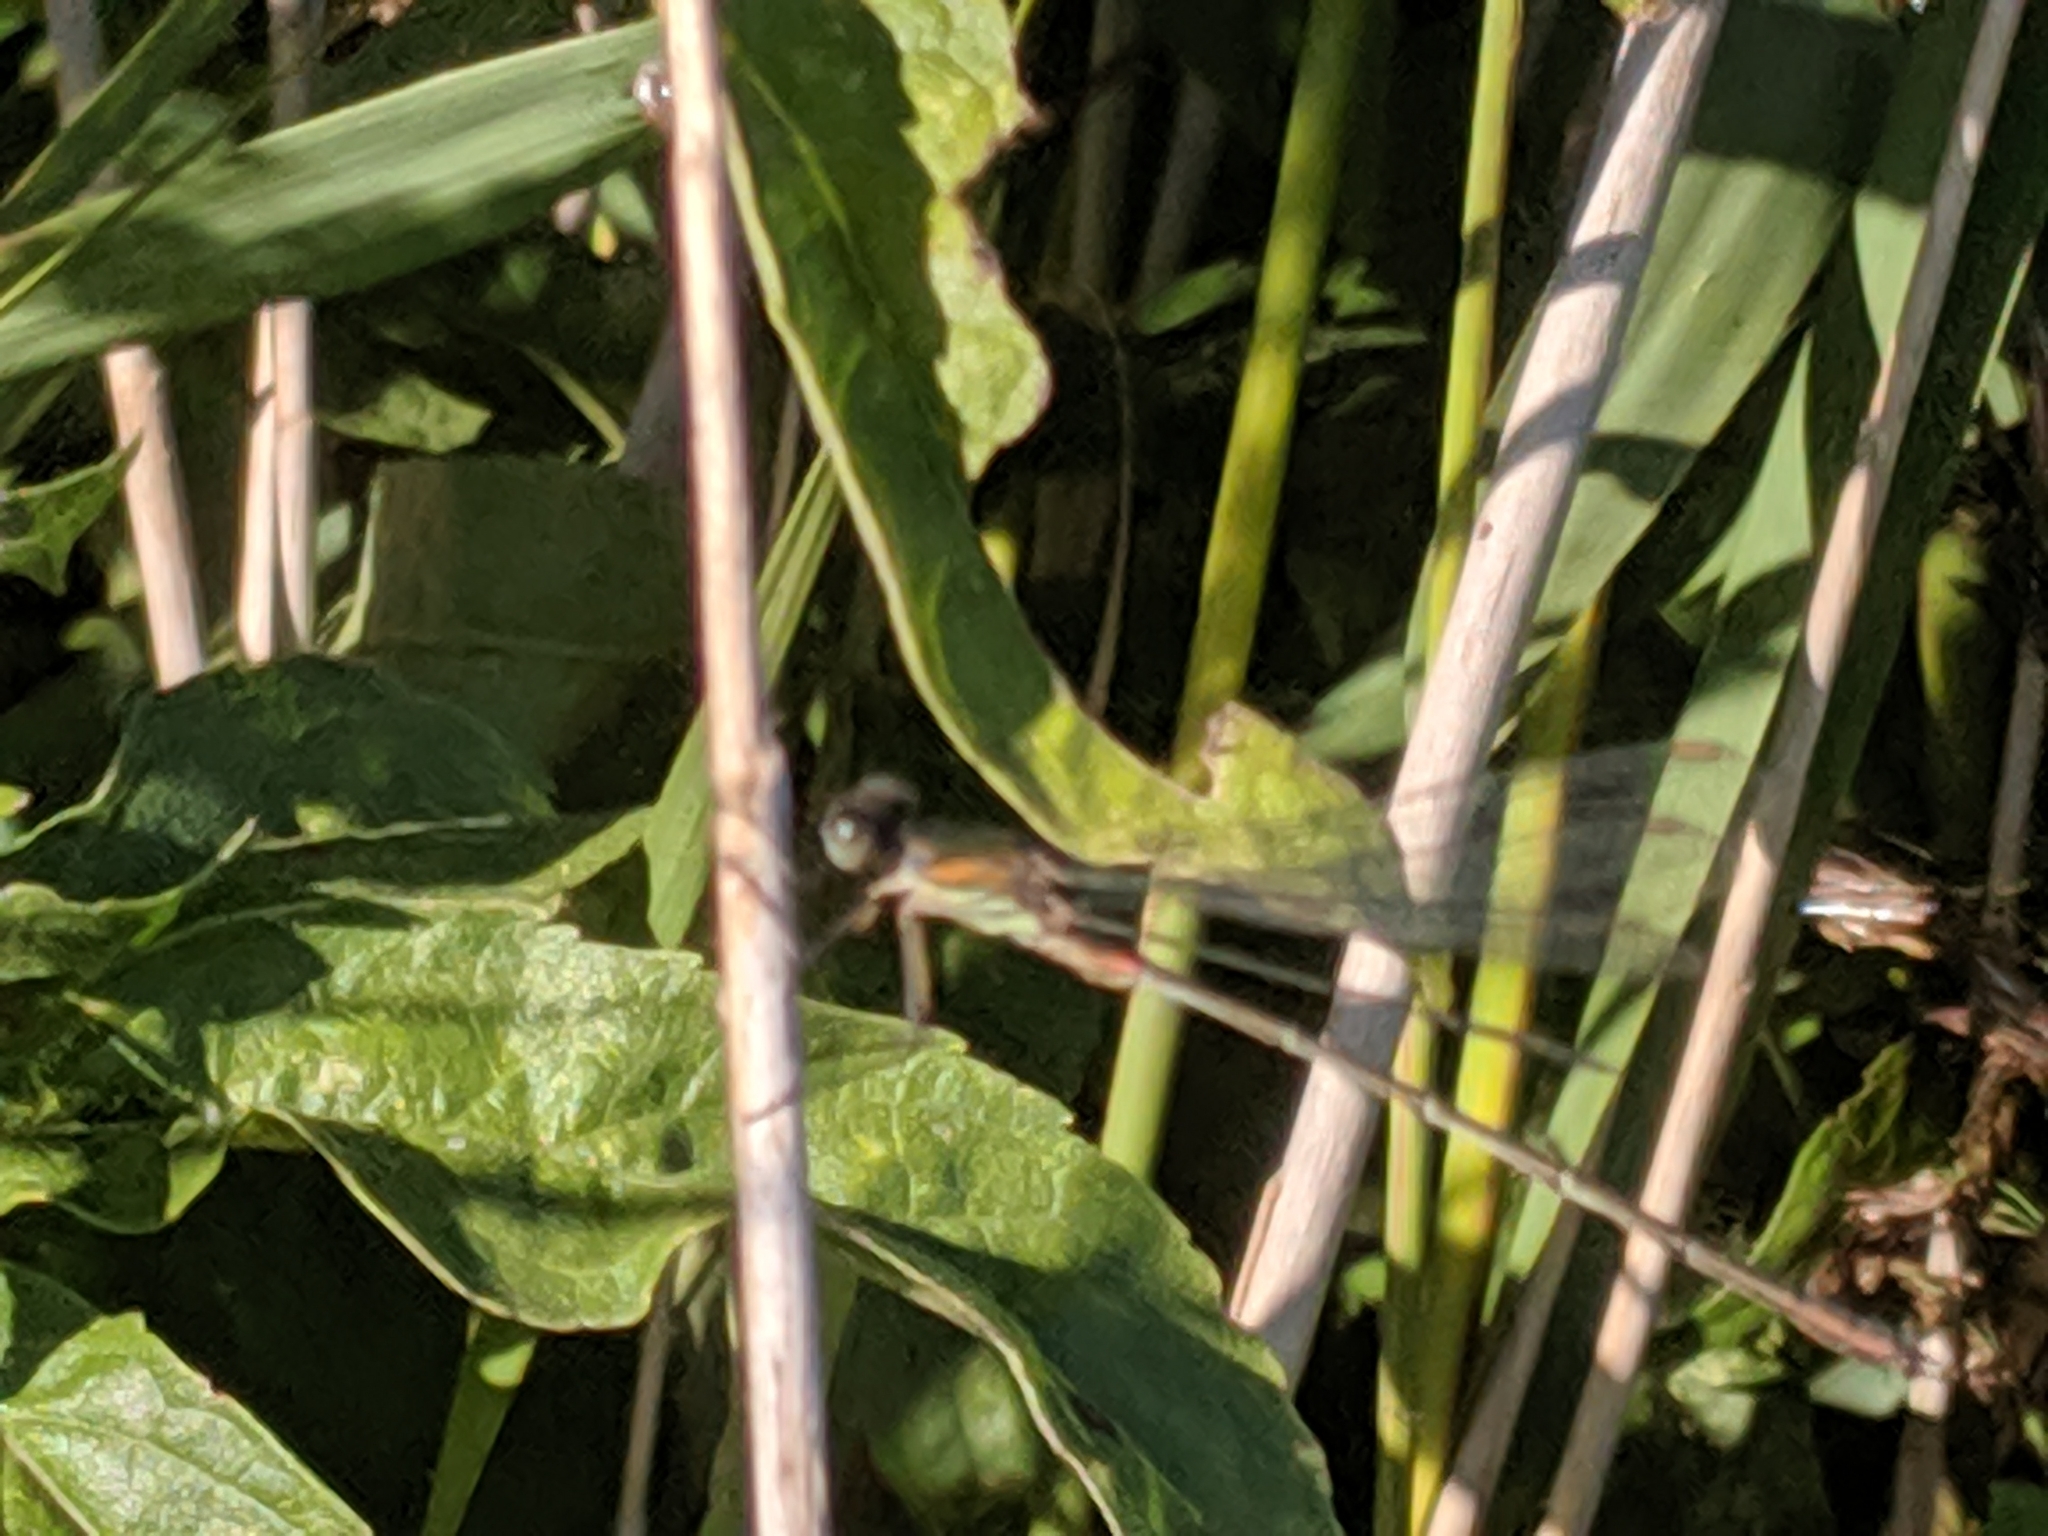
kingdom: Animalia
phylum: Arthropoda
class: Insecta
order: Odonata
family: Lestidae
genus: Chalcolestes
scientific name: Chalcolestes viridis
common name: Green emerald damselfly
